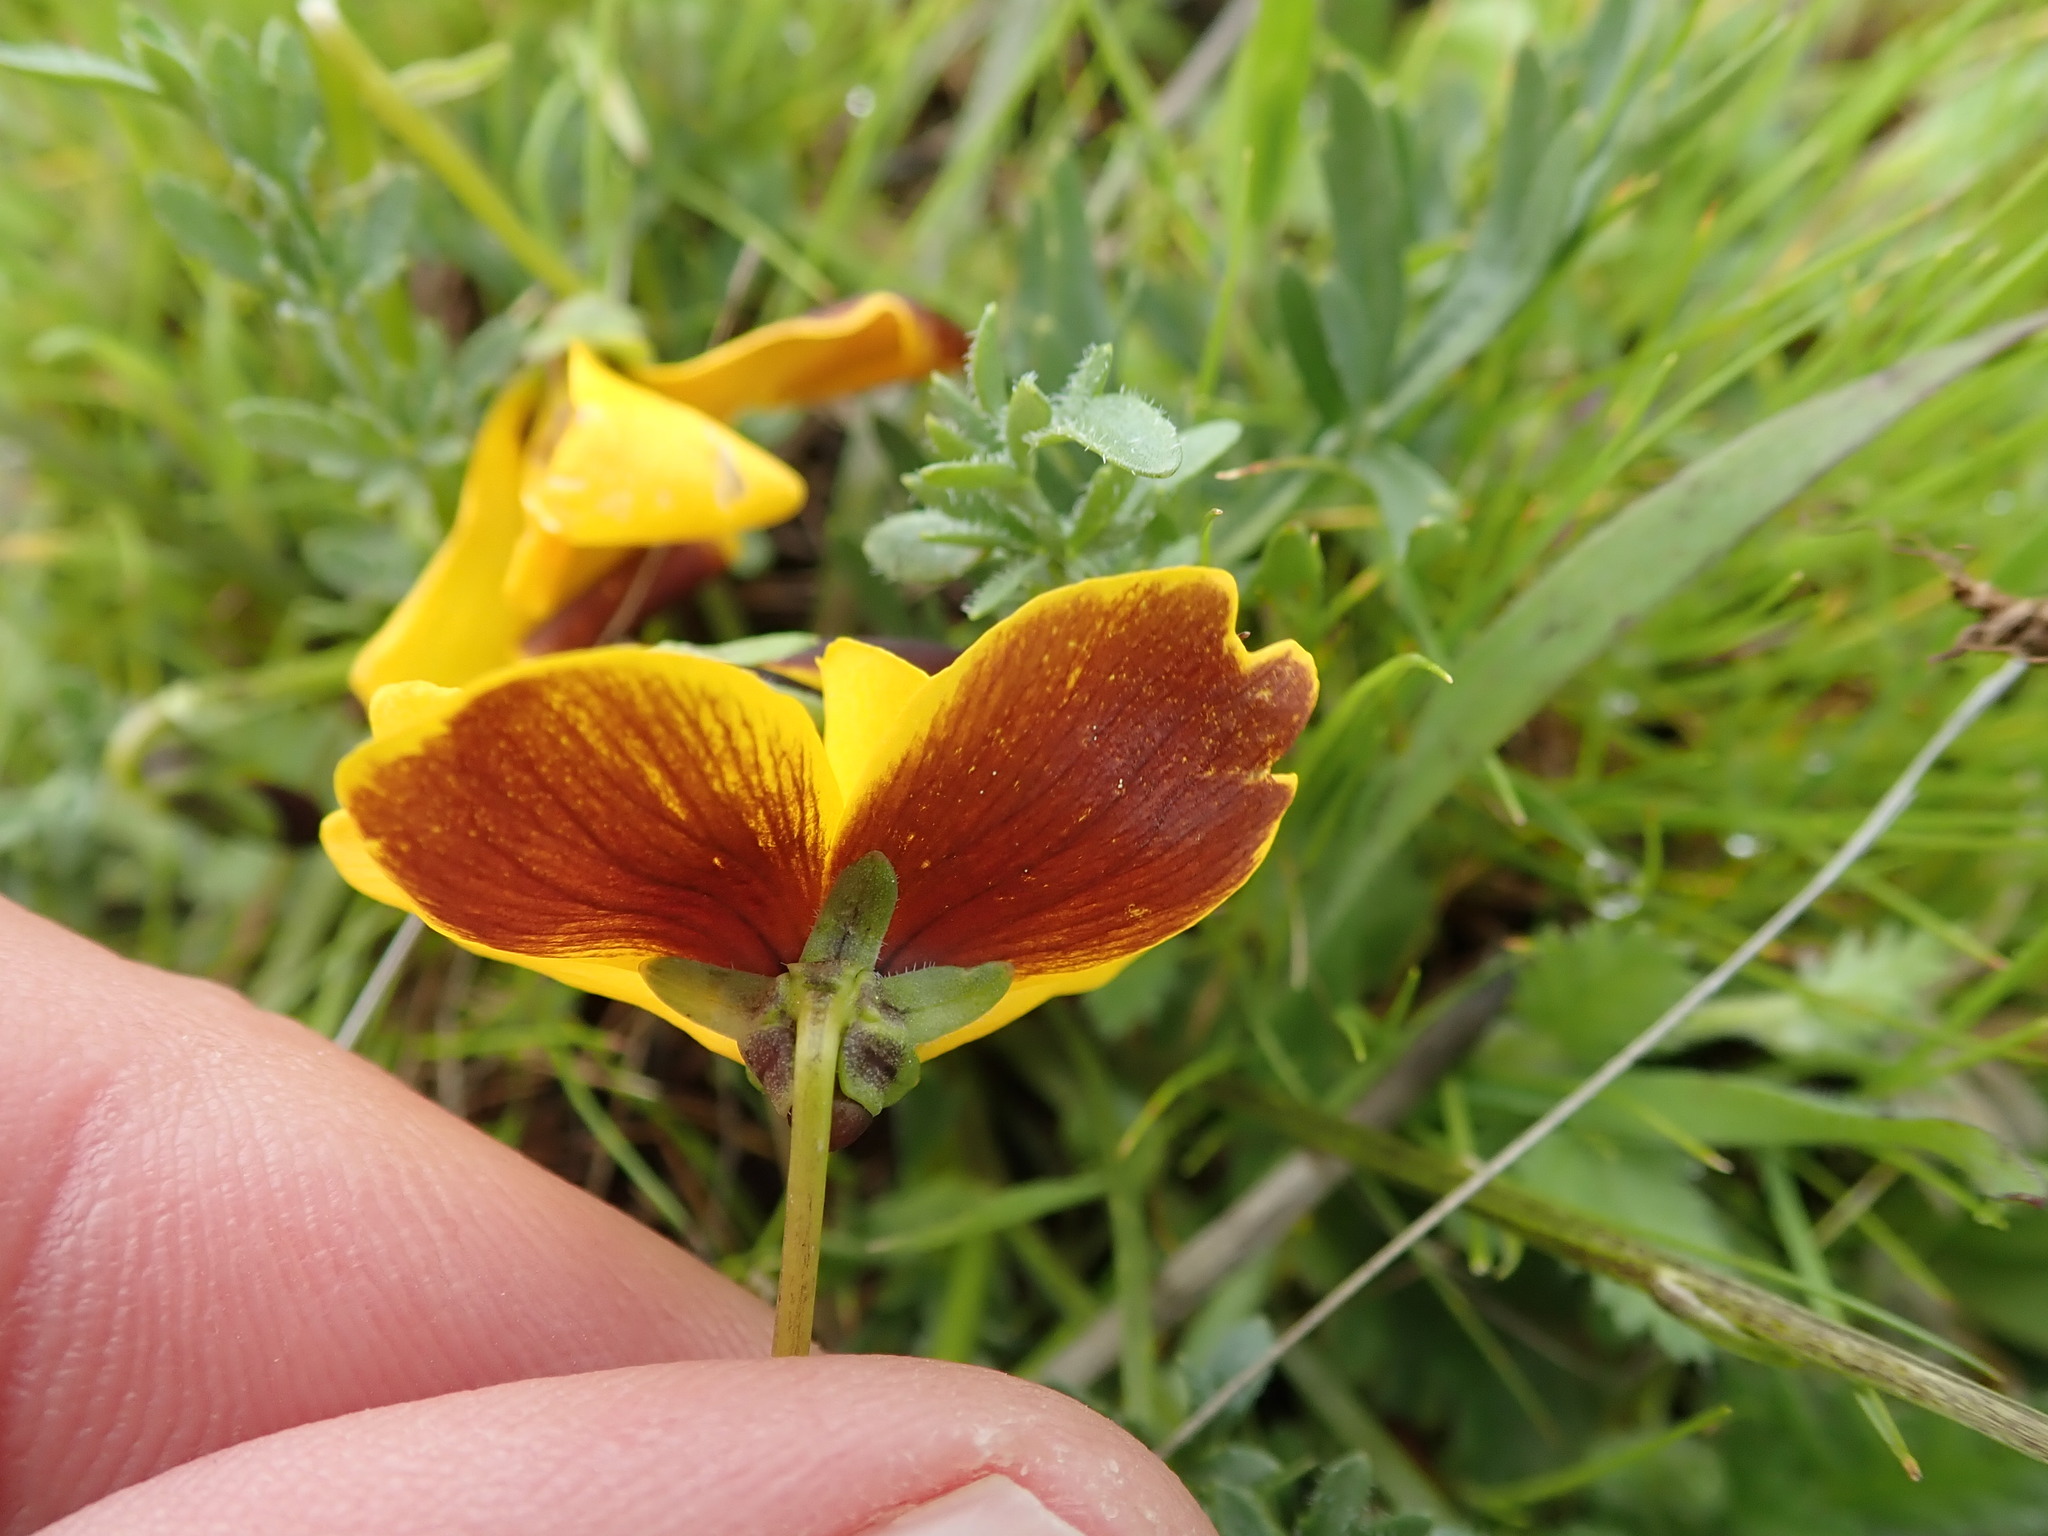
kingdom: Plantae
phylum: Tracheophyta
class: Magnoliopsida
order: Malpighiales
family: Violaceae
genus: Viola
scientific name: Viola douglasii
